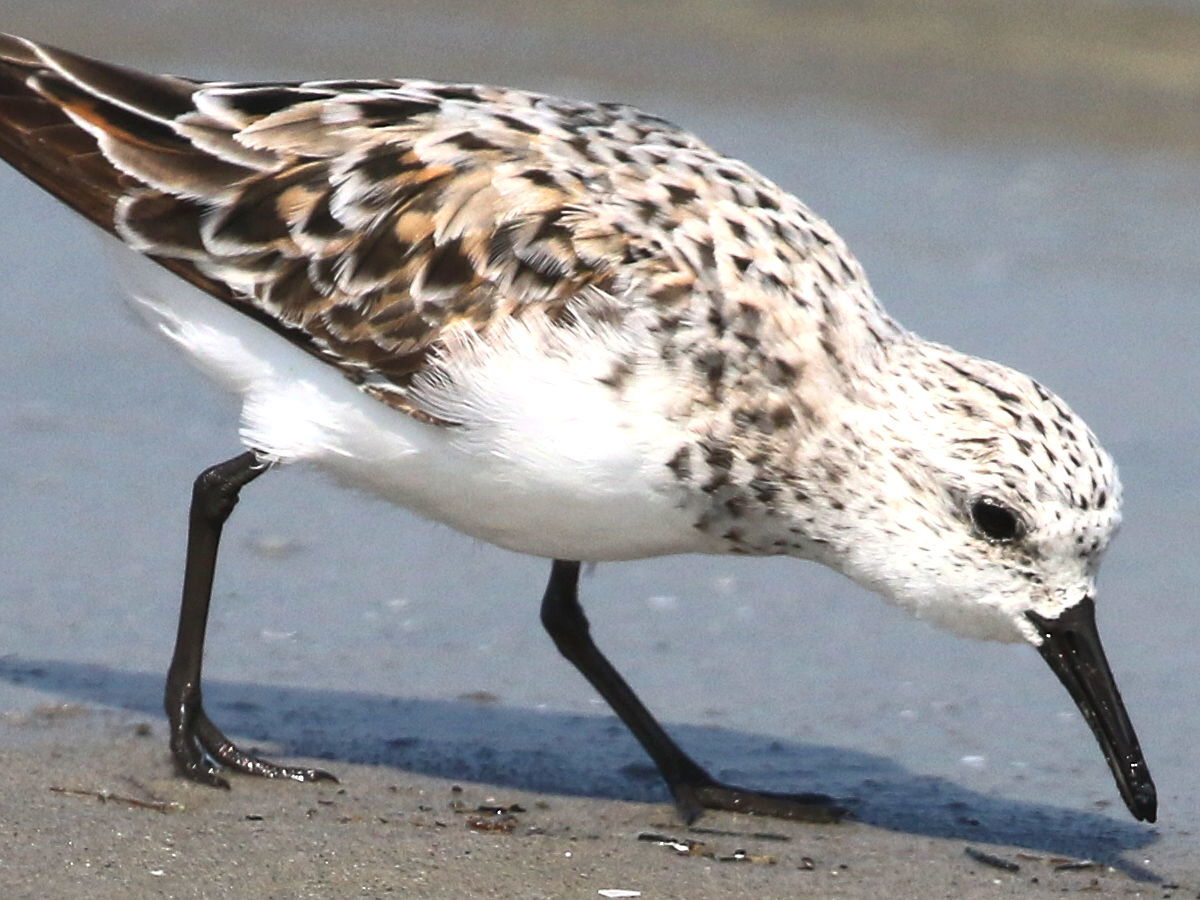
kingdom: Animalia
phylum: Chordata
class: Aves
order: Charadriiformes
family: Scolopacidae
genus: Calidris
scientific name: Calidris alba
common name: Sanderling
